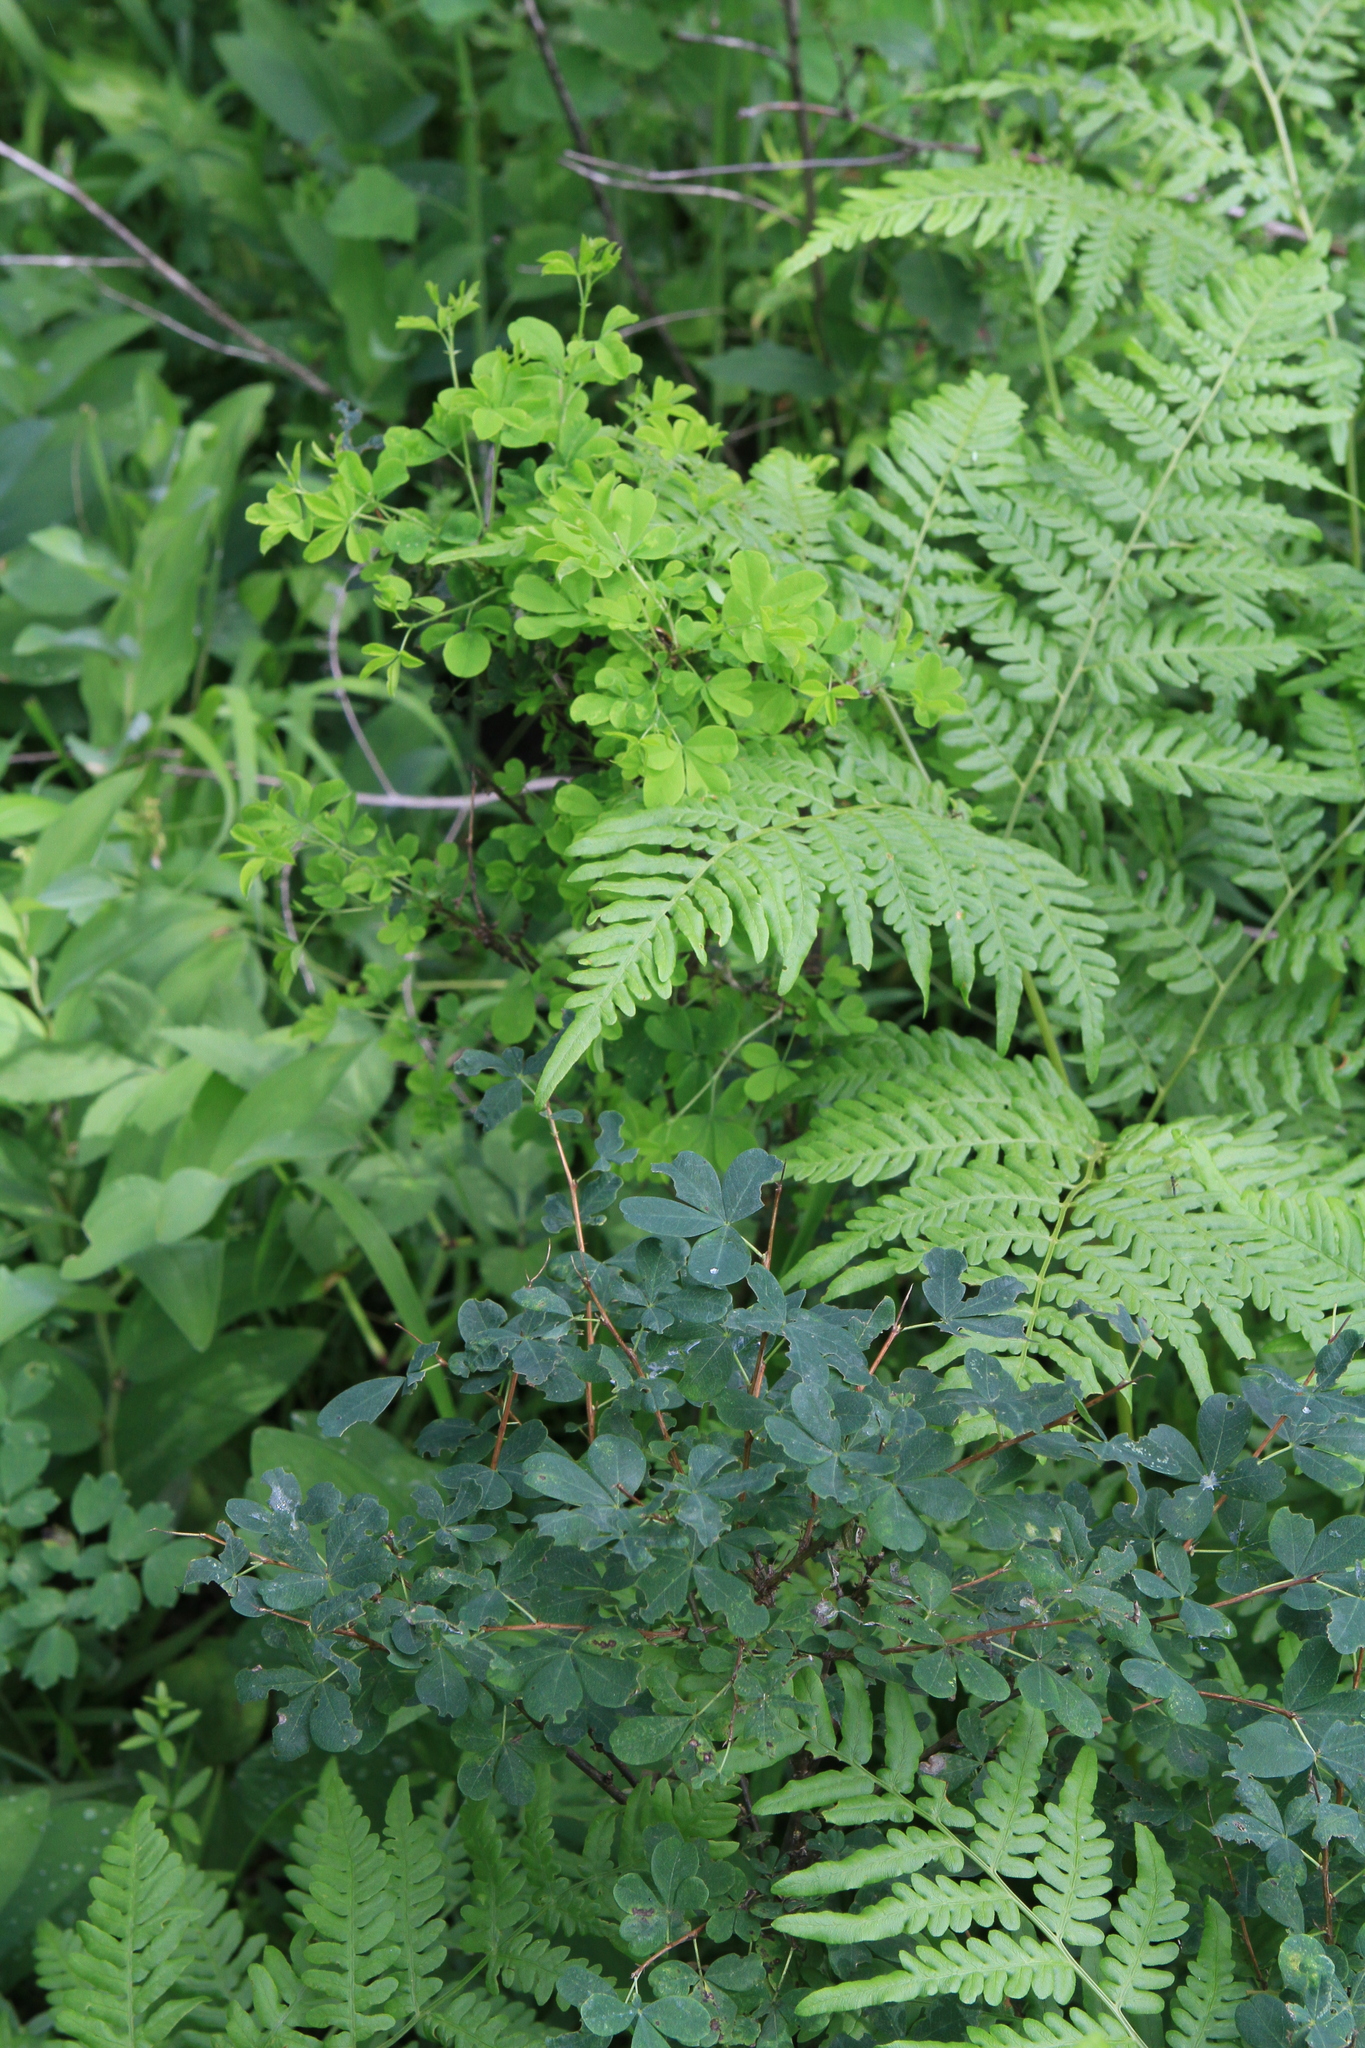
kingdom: Plantae
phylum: Tracheophyta
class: Magnoliopsida
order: Fabales
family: Fabaceae
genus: Caragana
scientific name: Caragana frutex
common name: Russian peashrub
